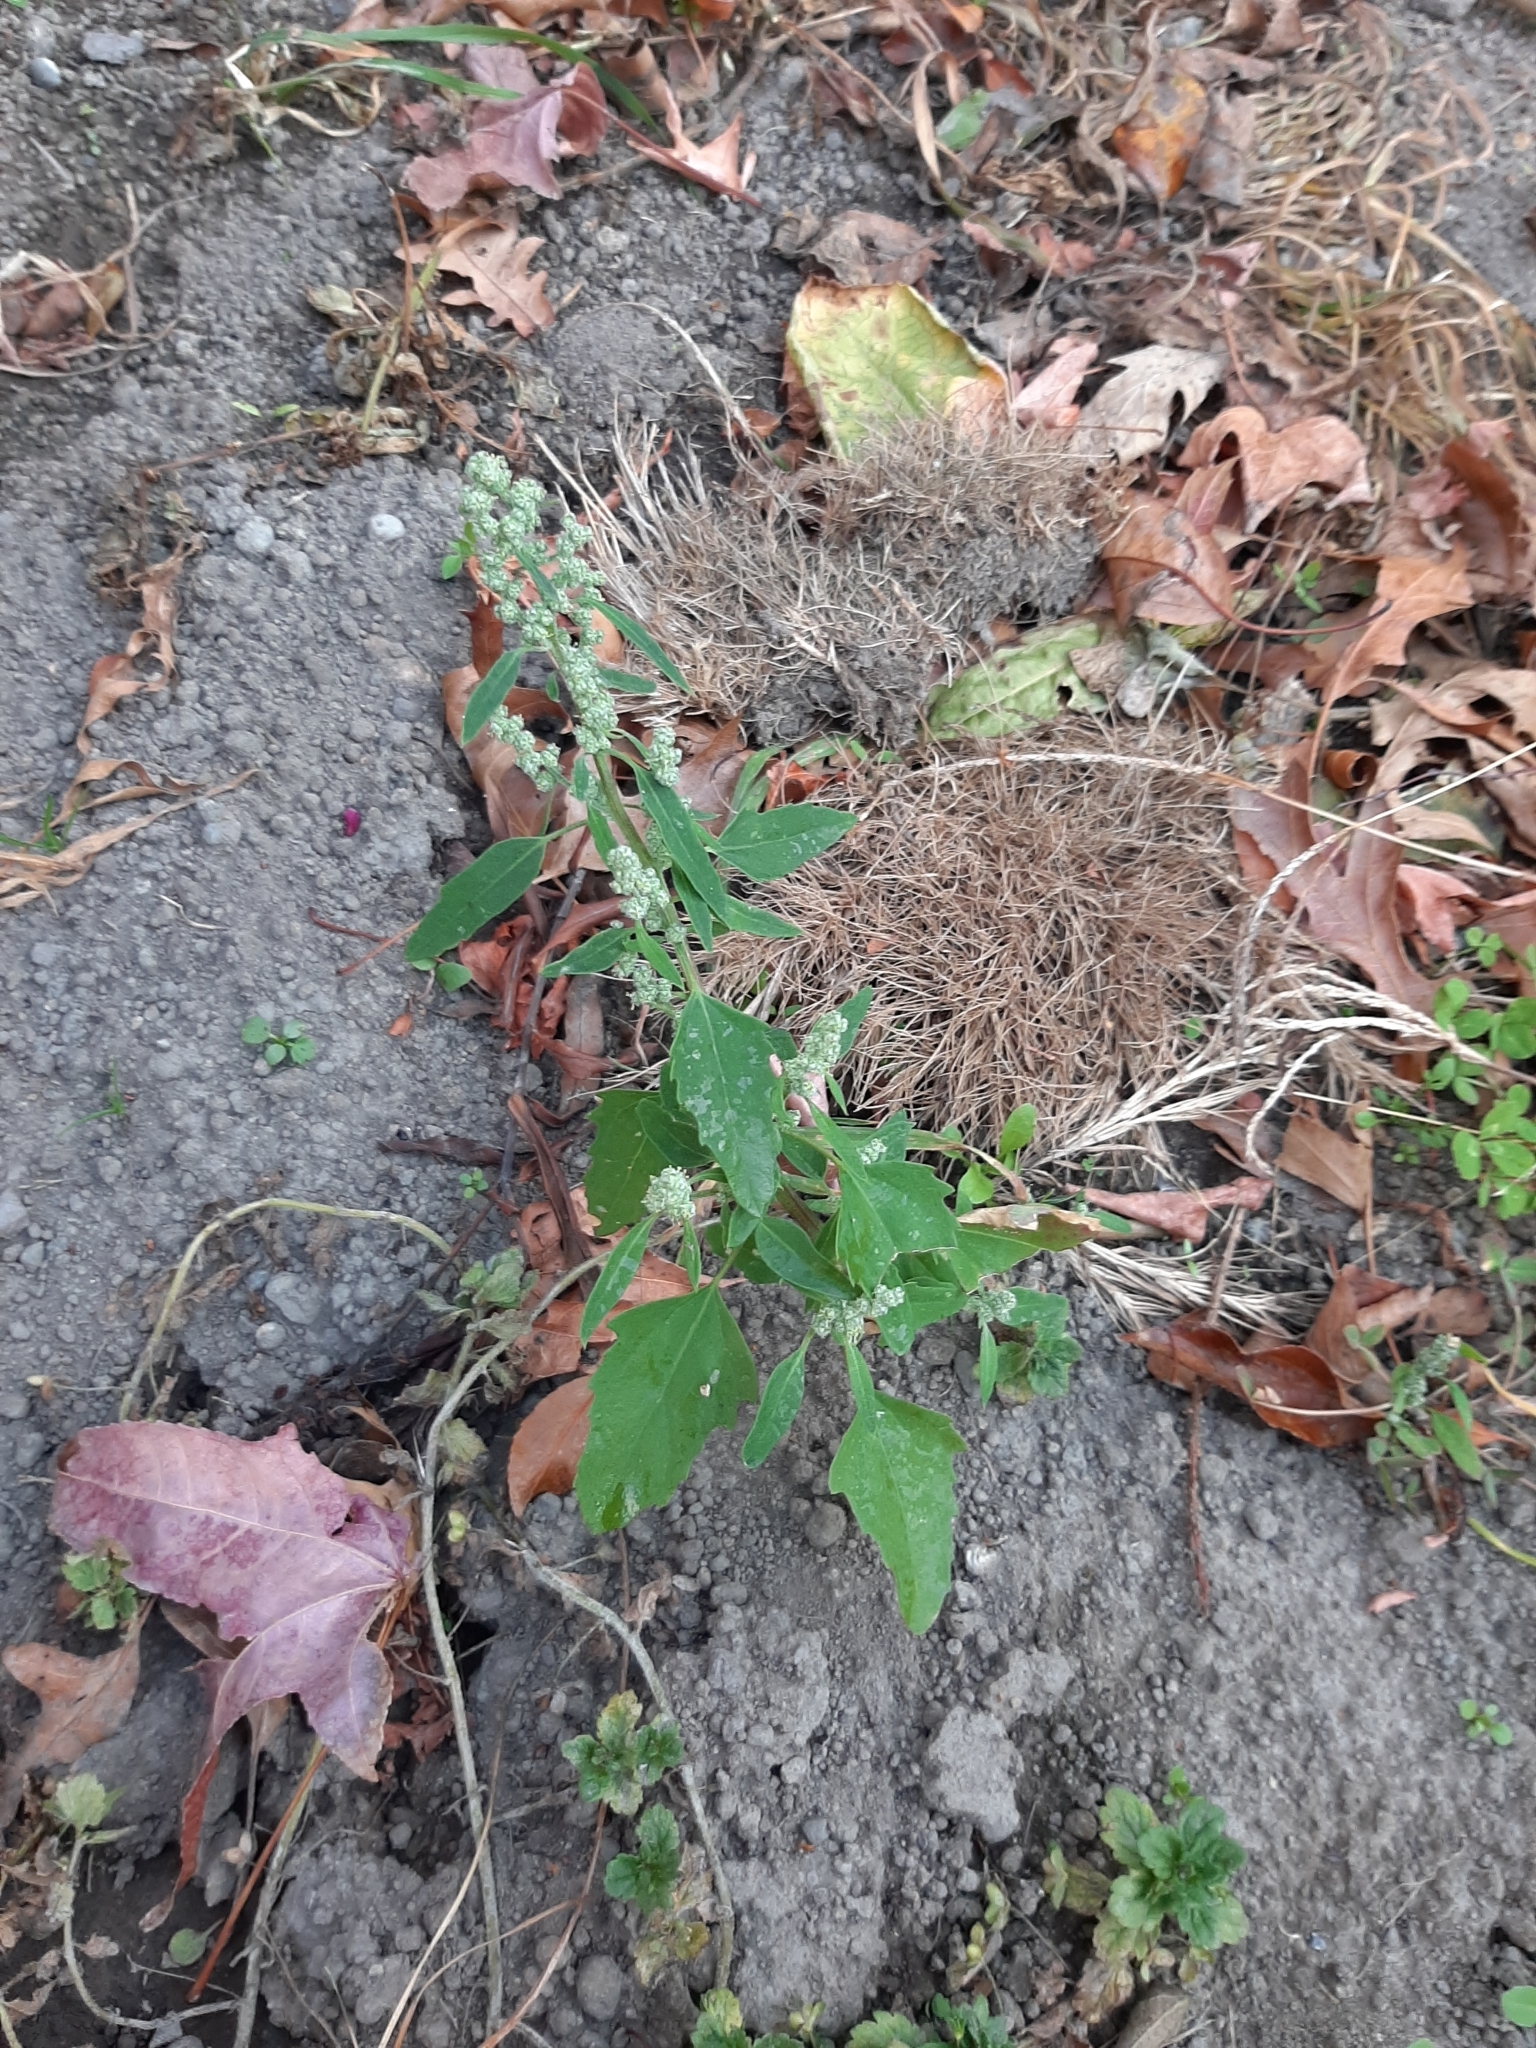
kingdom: Plantae
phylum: Tracheophyta
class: Magnoliopsida
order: Caryophyllales
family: Amaranthaceae
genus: Chenopodium
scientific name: Chenopodium album
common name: Fat-hen
